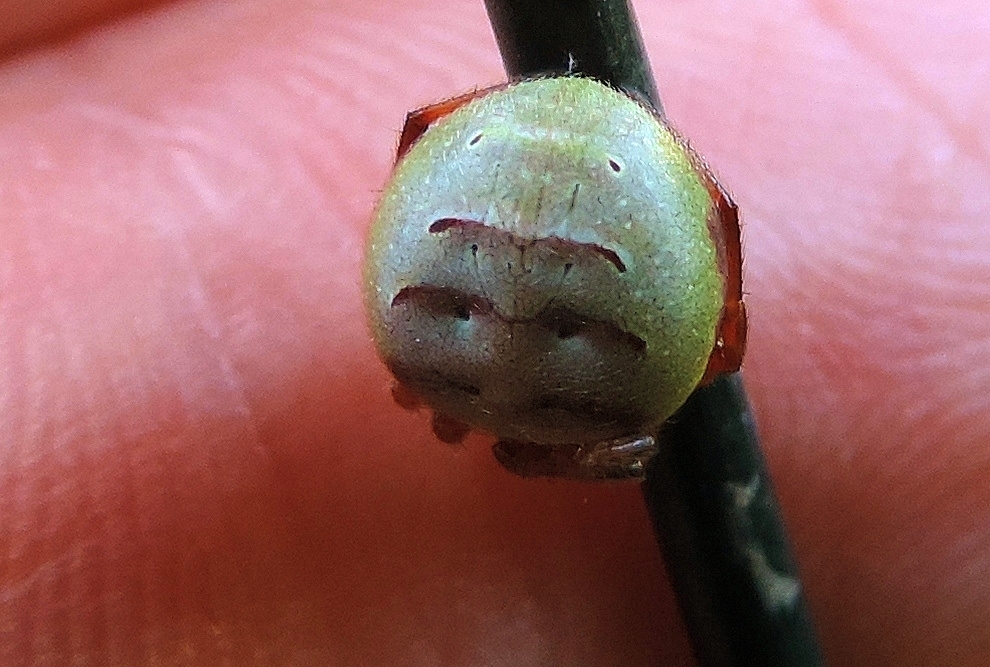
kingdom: Animalia
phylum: Arthropoda
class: Arachnida
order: Araneae
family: Araneidae
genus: Araneus
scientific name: Araneus apricus
